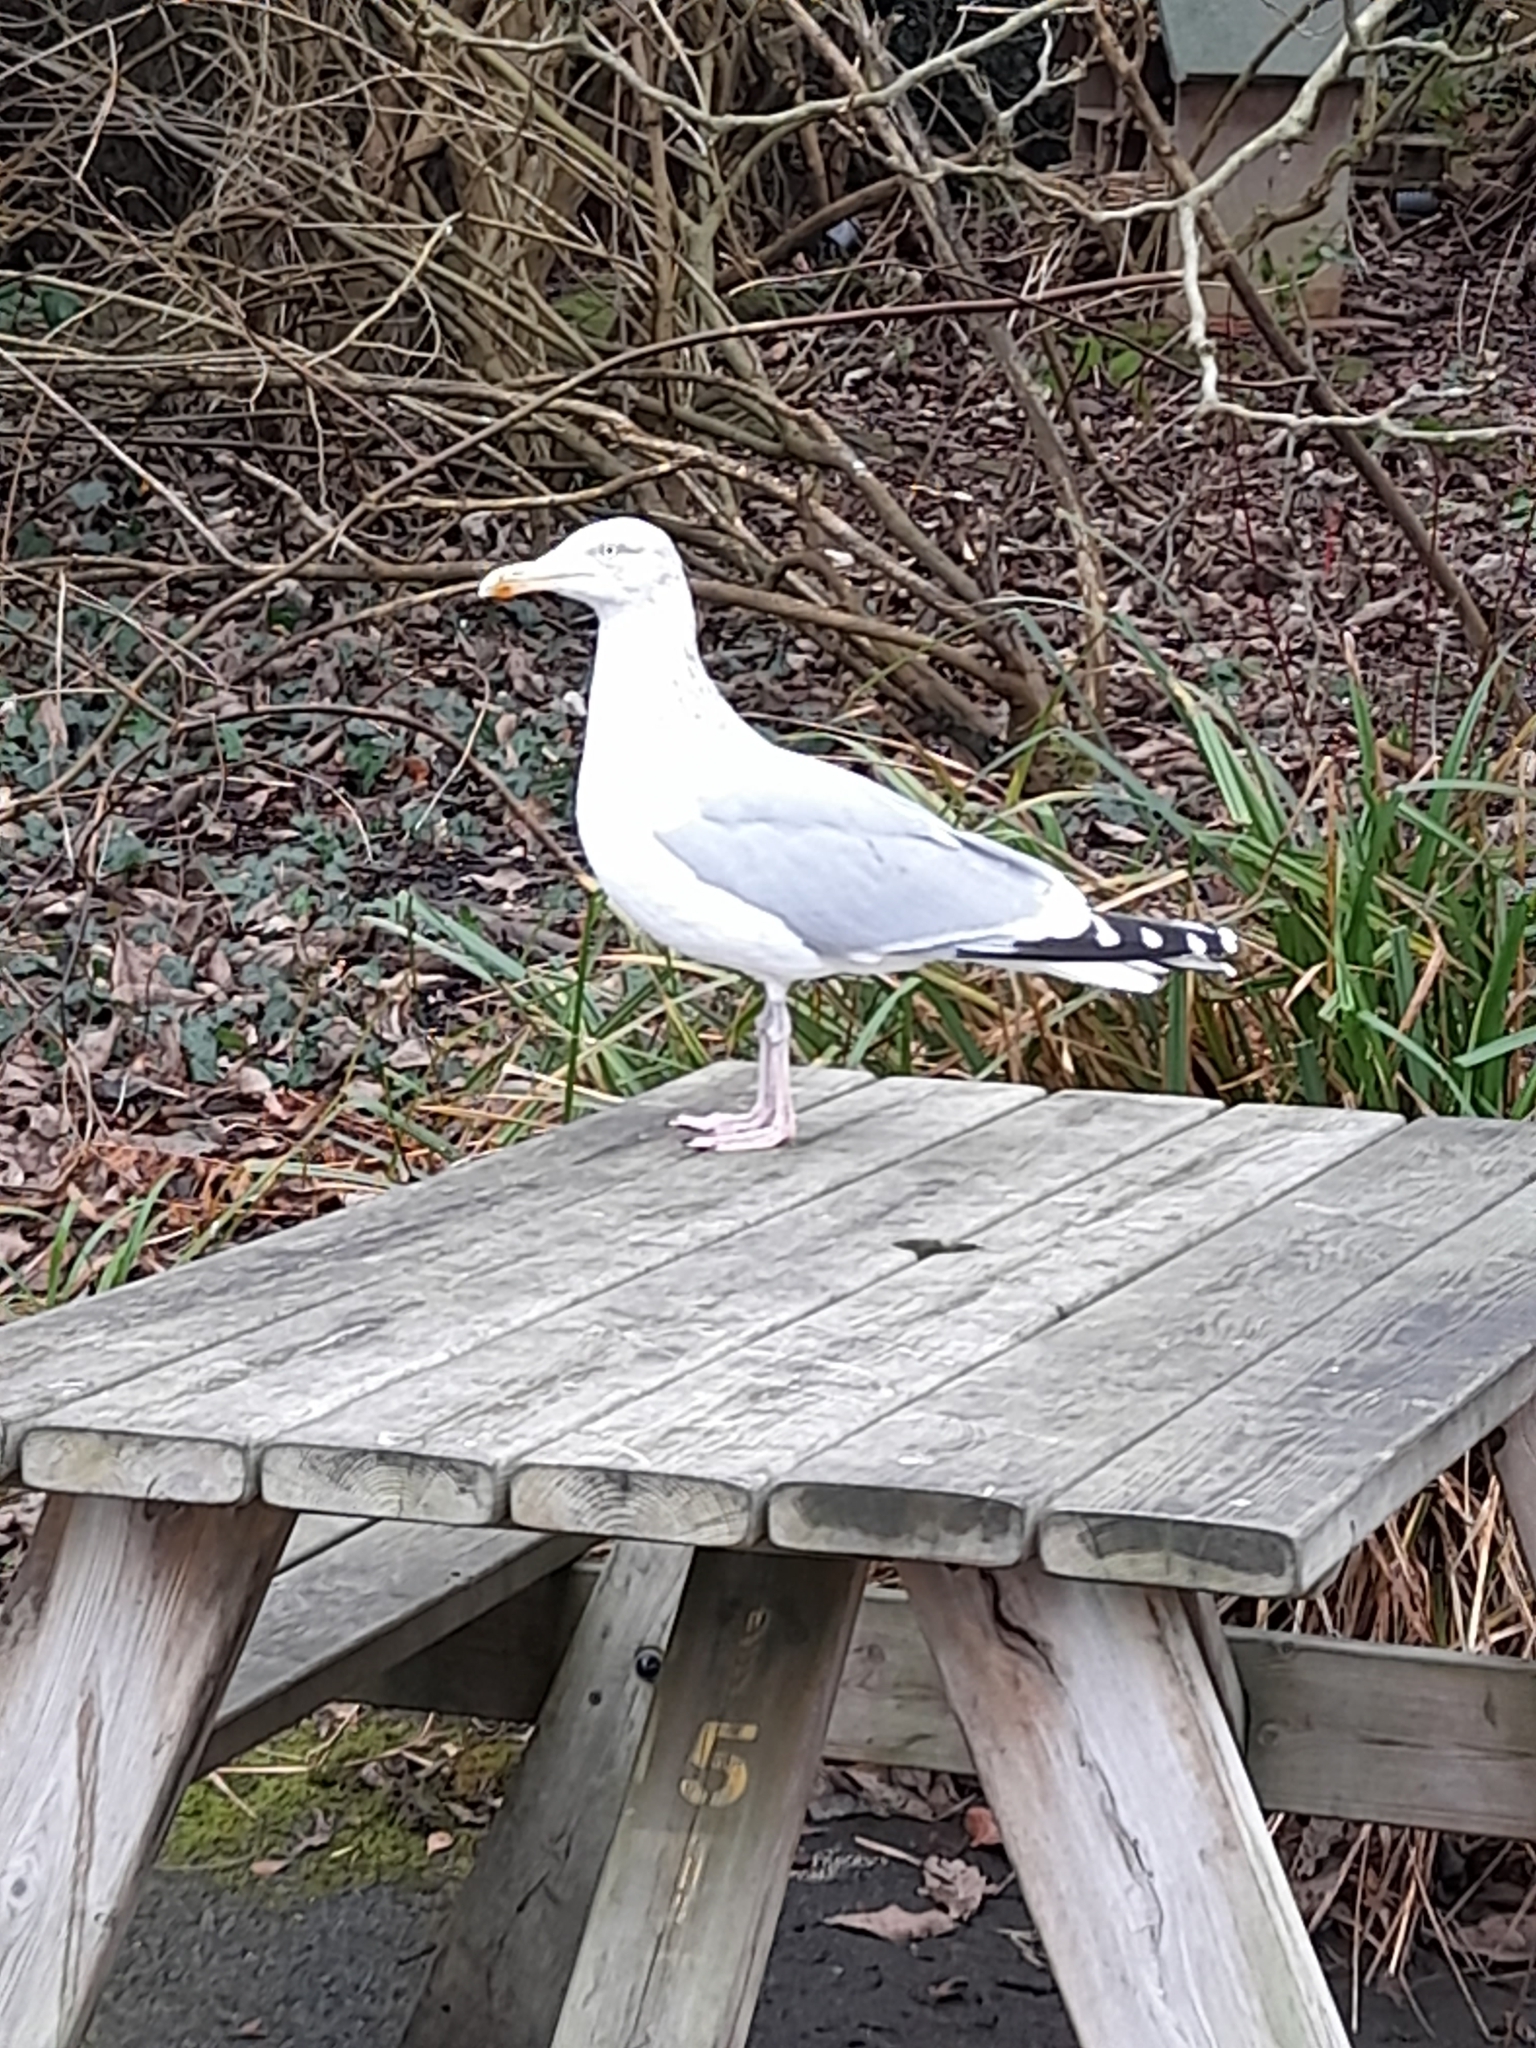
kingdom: Animalia
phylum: Chordata
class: Aves
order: Charadriiformes
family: Laridae
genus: Larus
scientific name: Larus argentatus
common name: Herring gull
